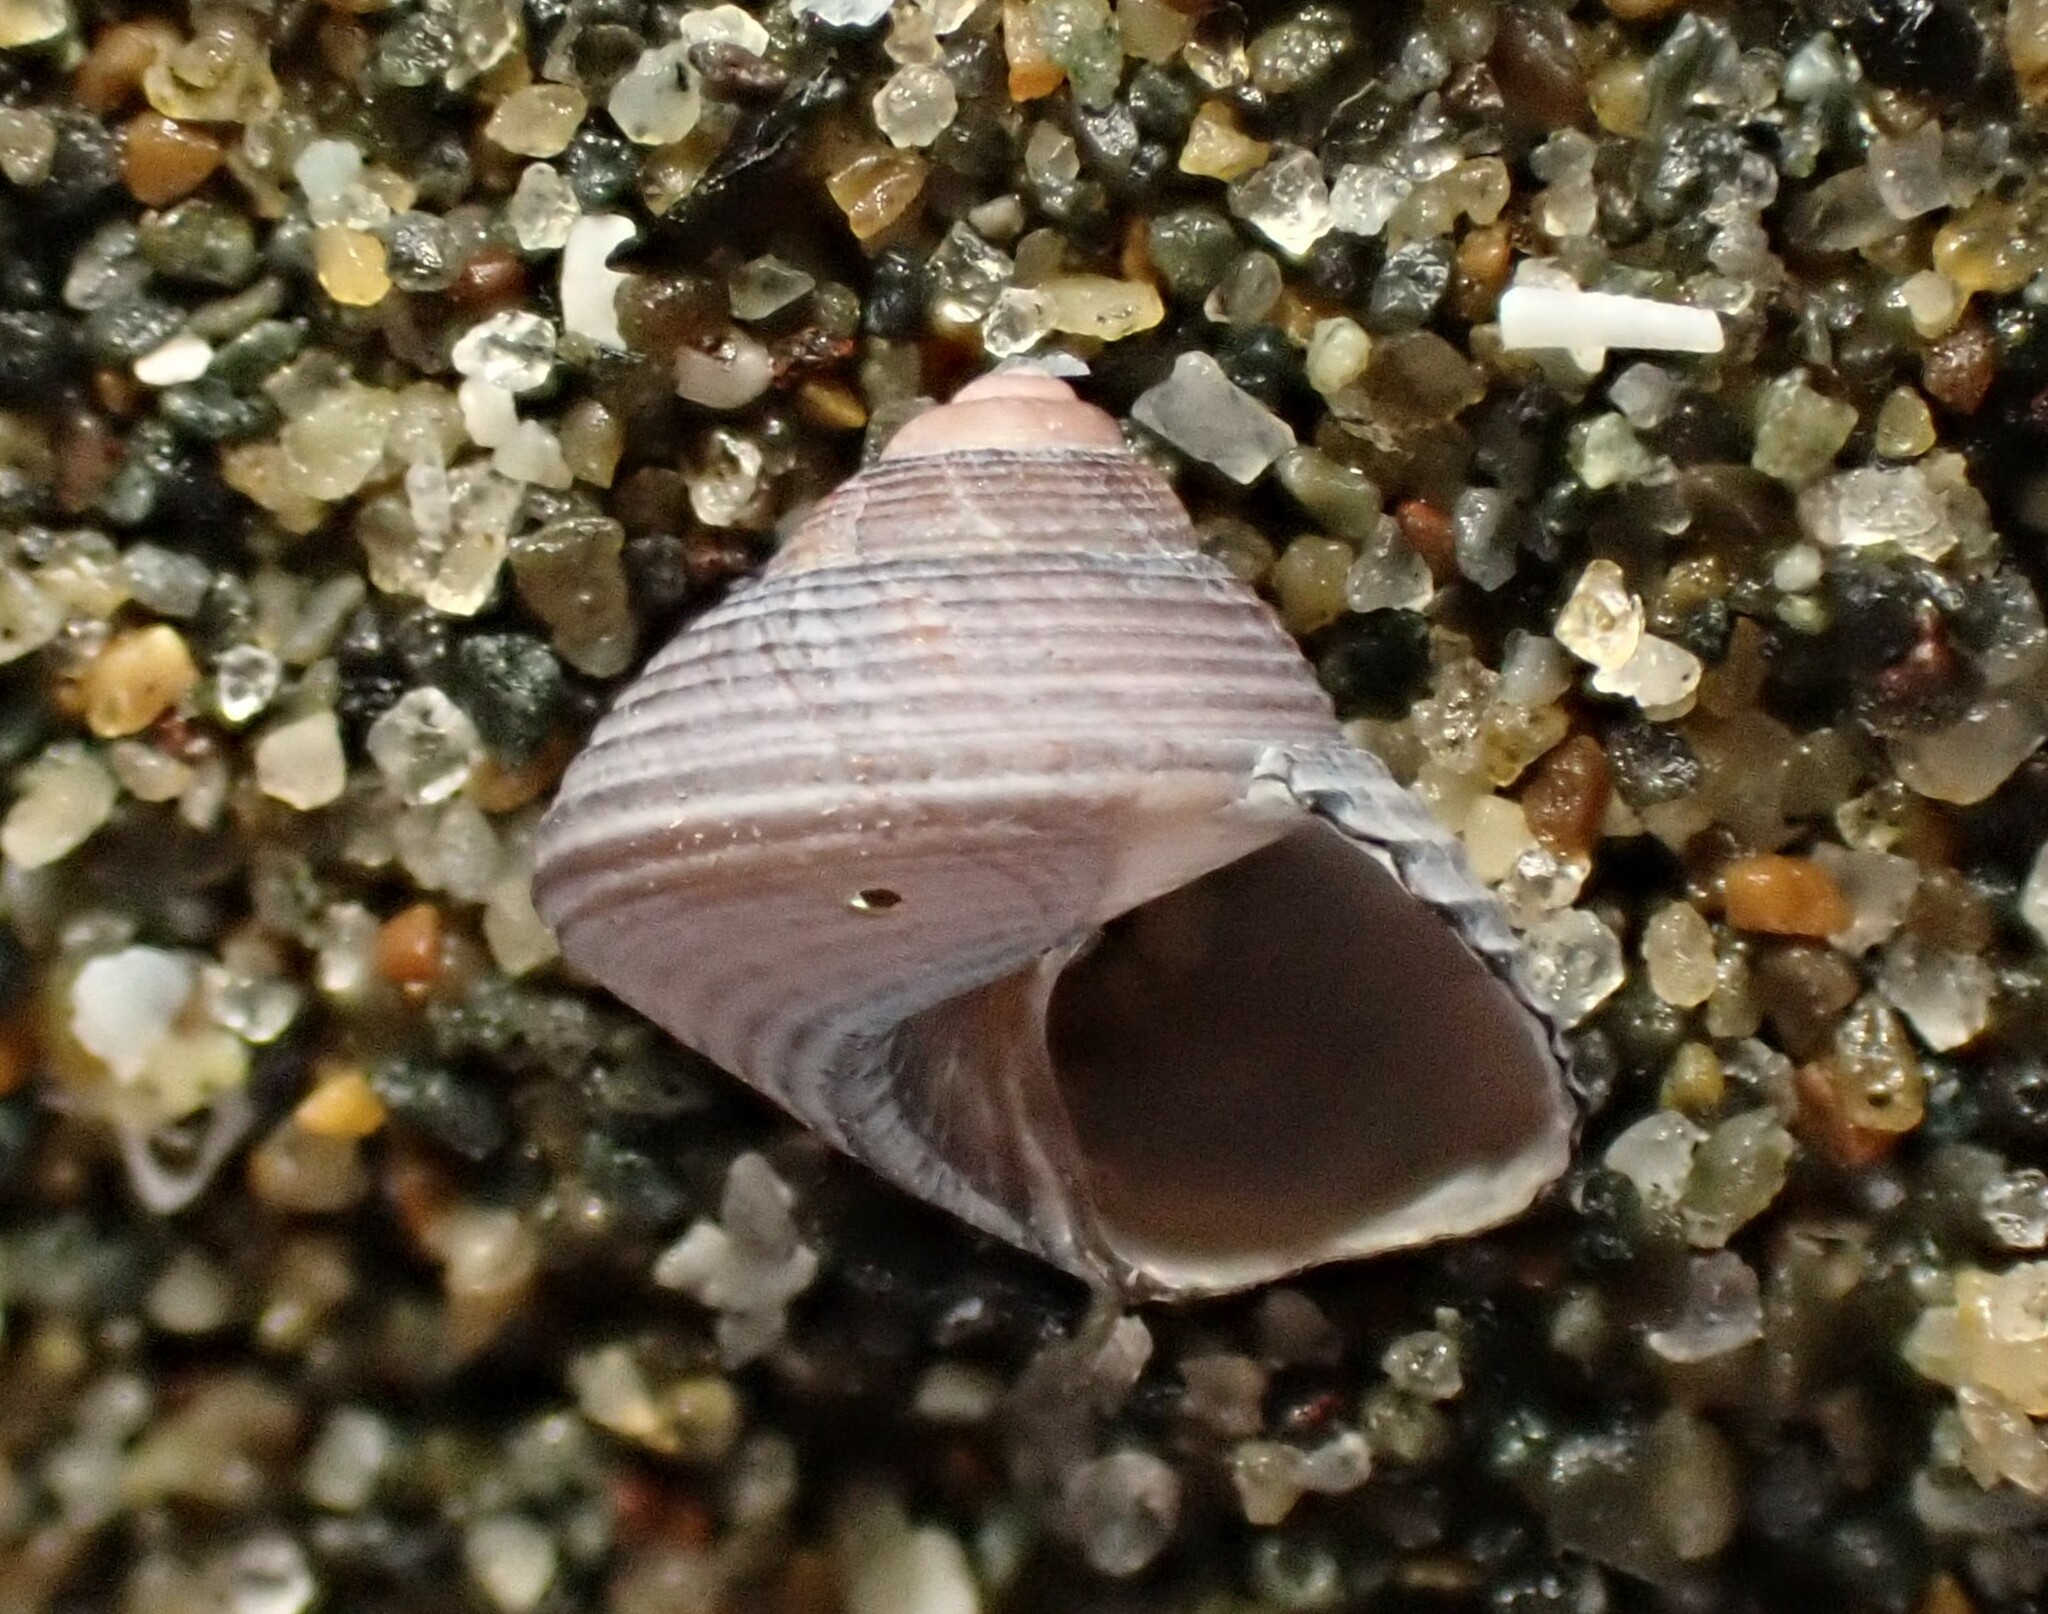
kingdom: Animalia
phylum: Mollusca
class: Gastropoda
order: Trochida
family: Trochidae
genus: Micrelenchus
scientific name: Micrelenchus huttonii
